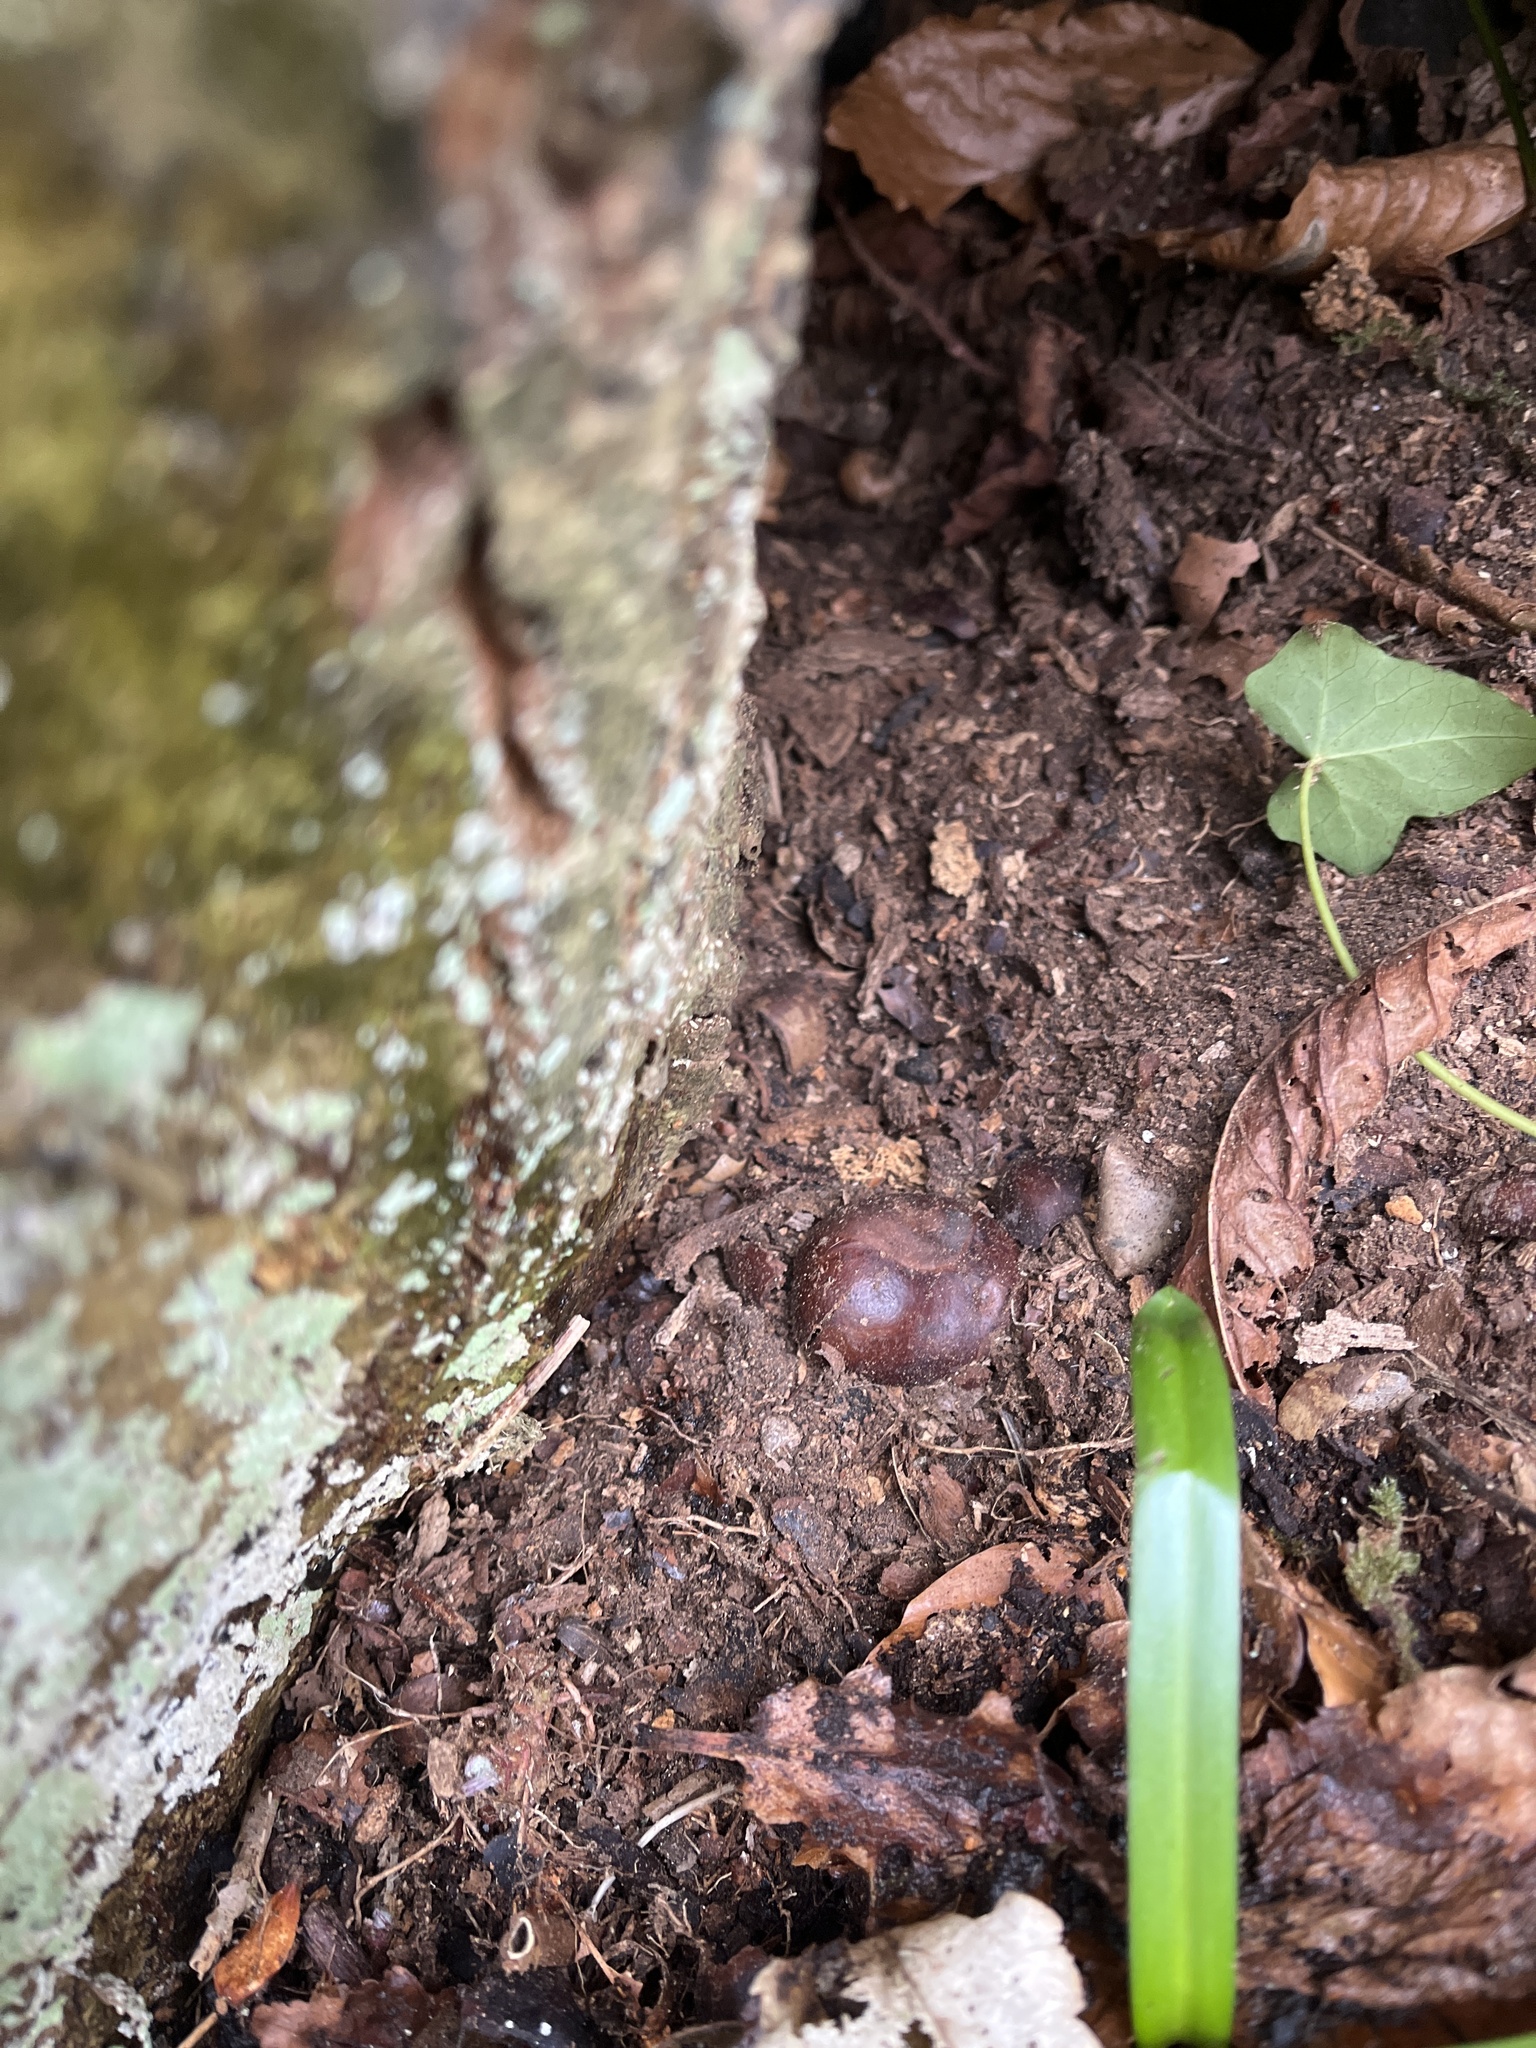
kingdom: Plantae
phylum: Tracheophyta
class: Magnoliopsida
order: Sapindales
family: Sapindaceae
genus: Aesculus
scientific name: Aesculus hippocastanum
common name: Horse-chestnut
